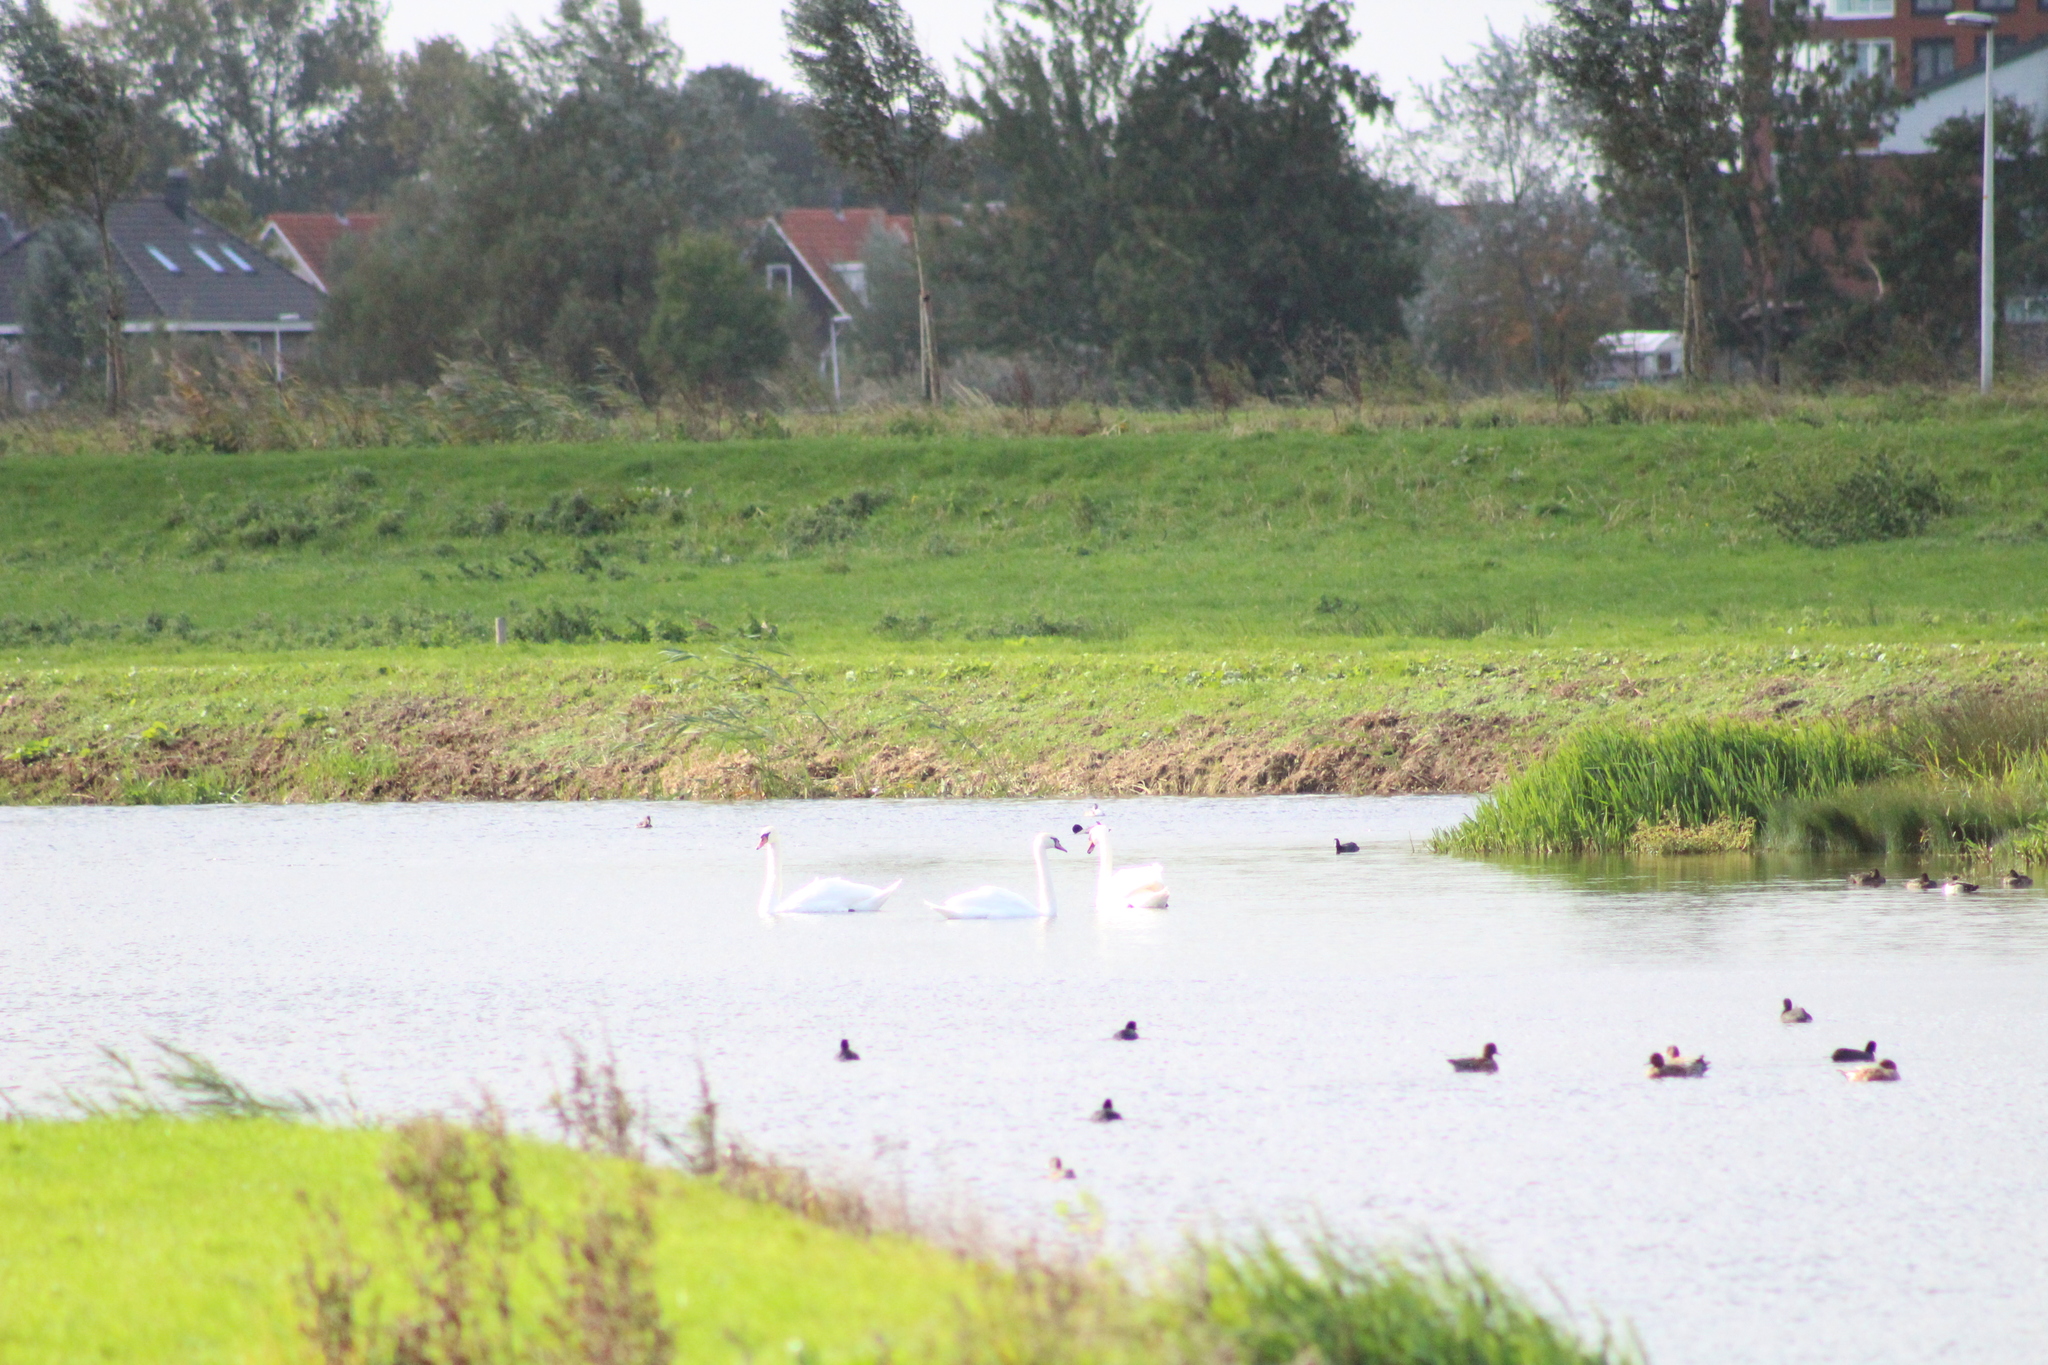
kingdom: Animalia
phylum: Chordata
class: Aves
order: Anseriformes
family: Anatidae
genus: Cygnus
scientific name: Cygnus olor
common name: Mute swan
